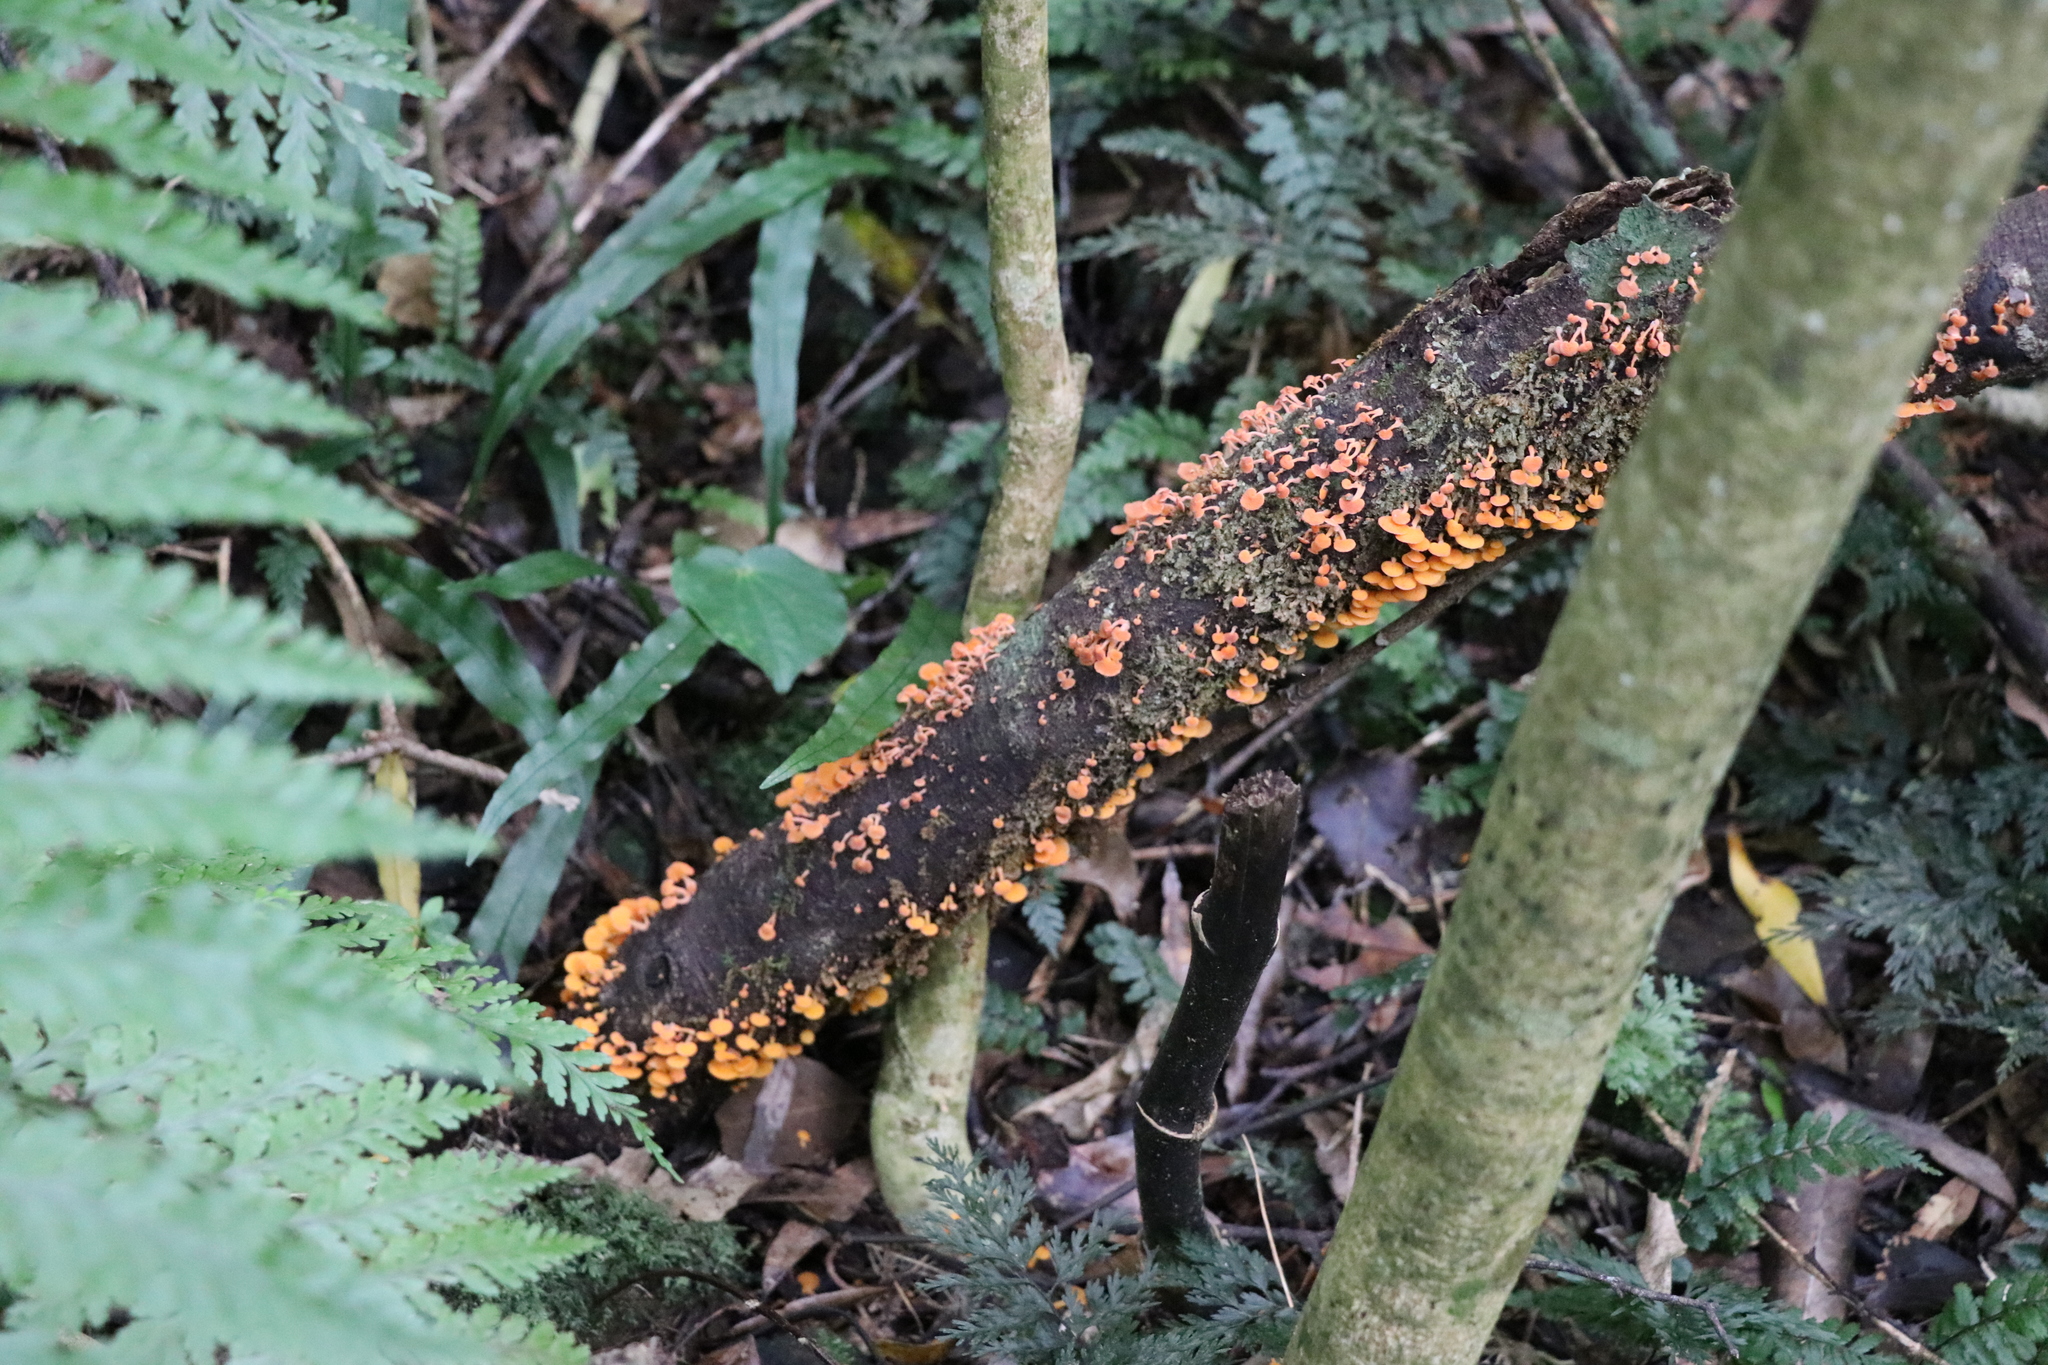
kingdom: Fungi
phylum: Basidiomycota
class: Agaricomycetes
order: Agaricales
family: Mycenaceae
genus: Favolaschia
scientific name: Favolaschia claudopus
